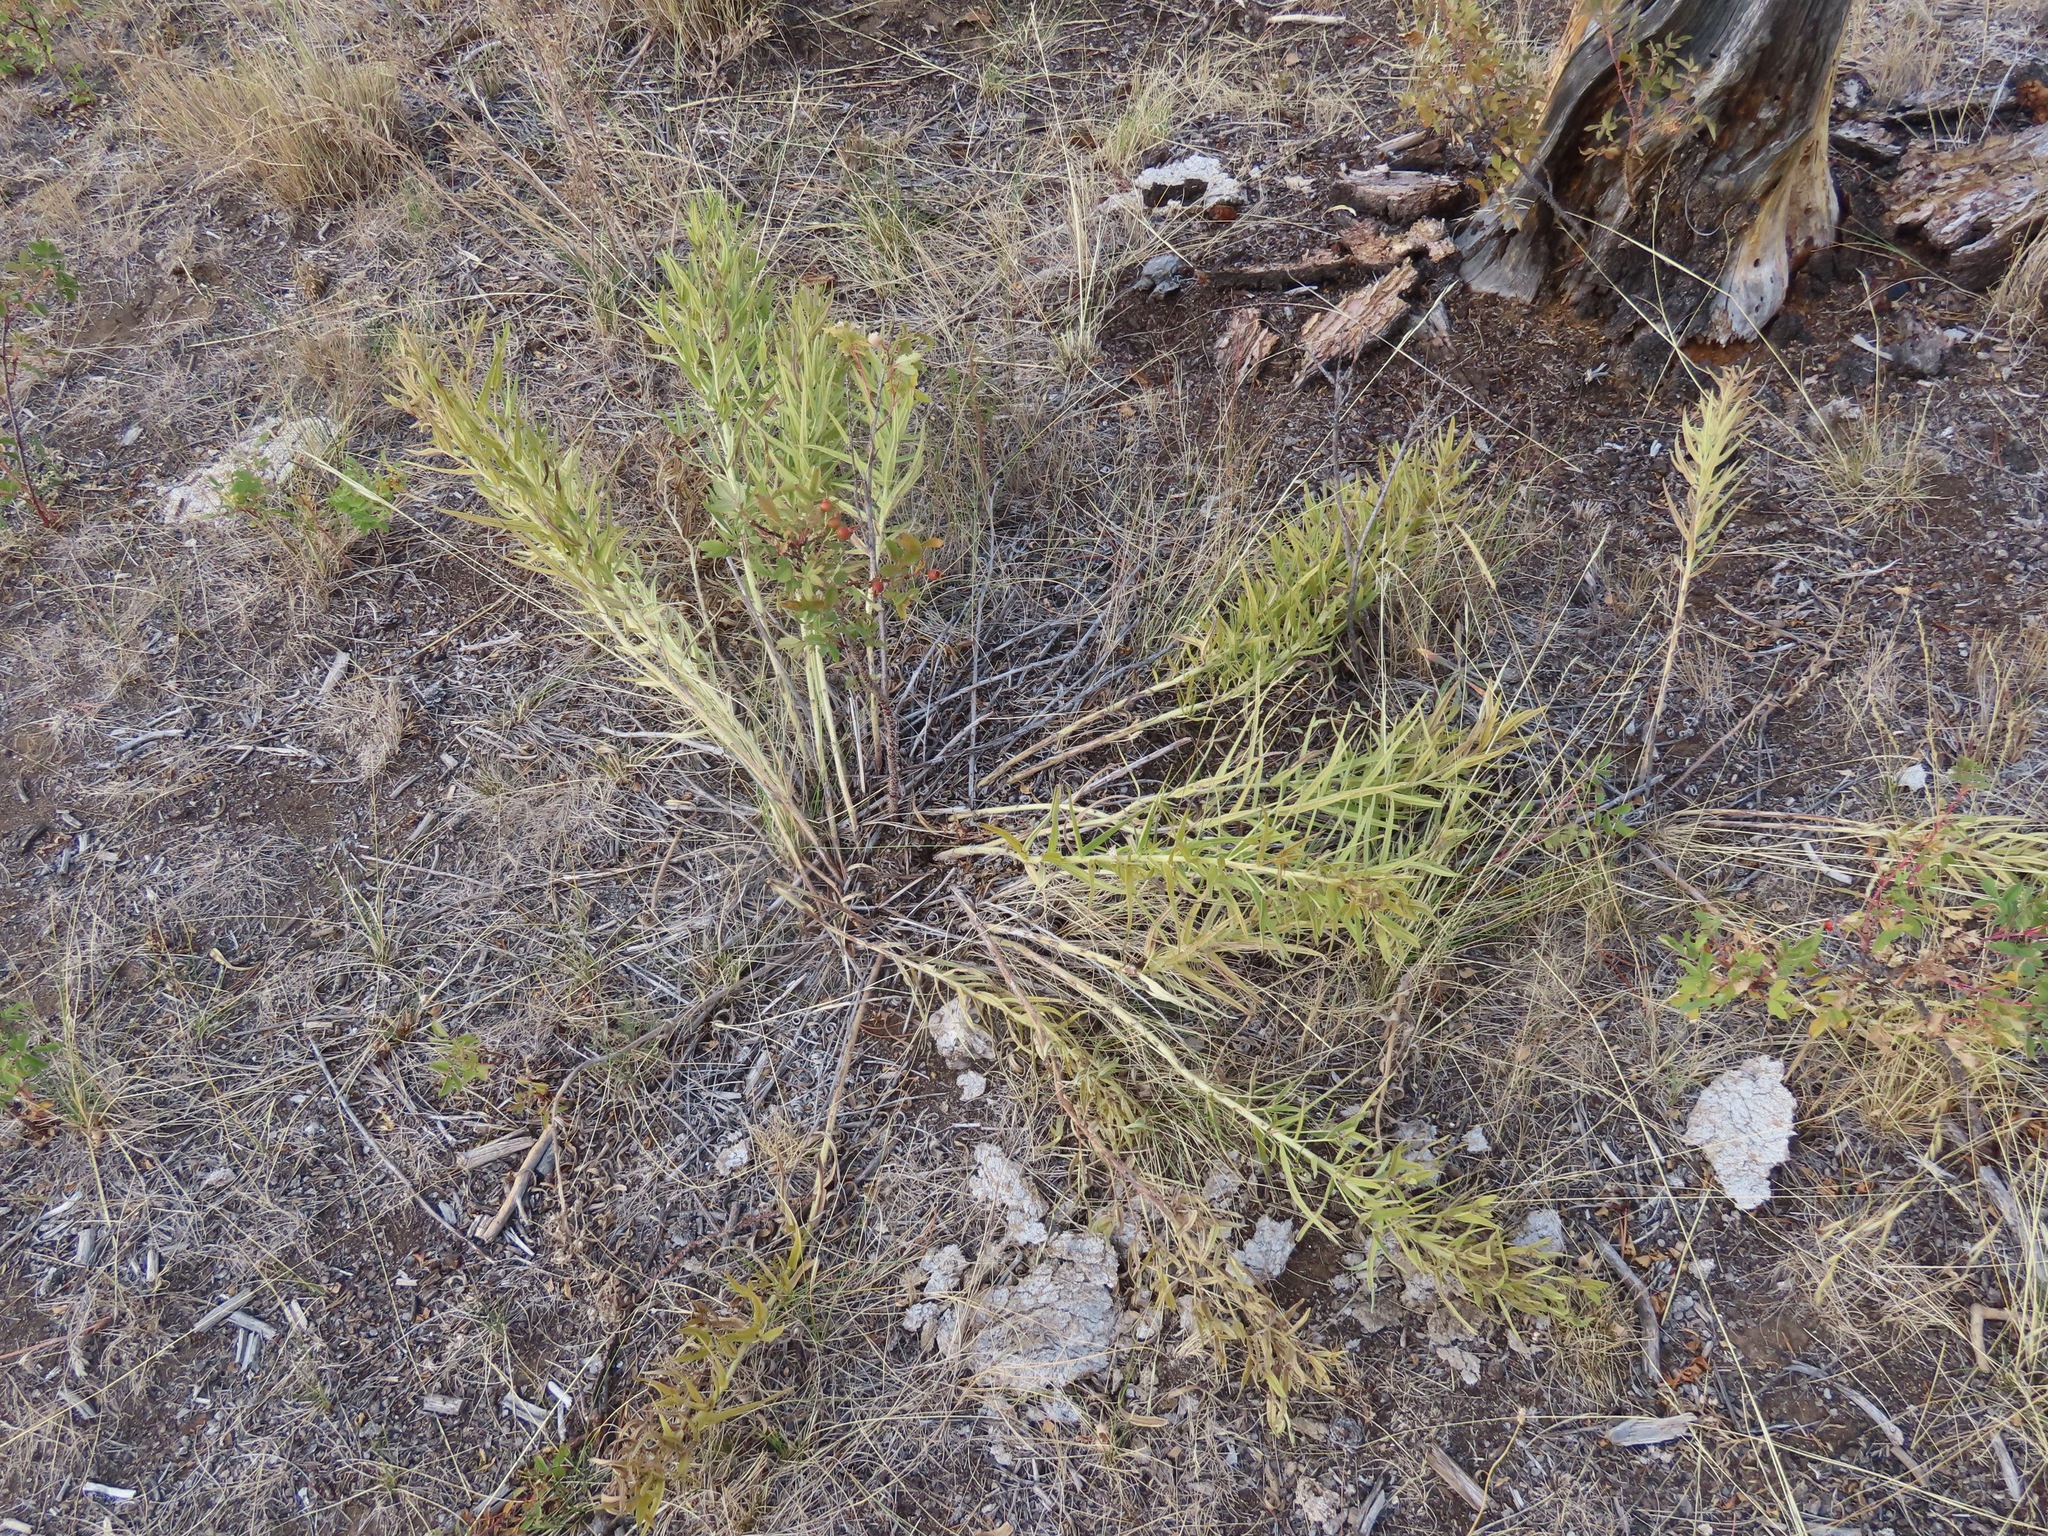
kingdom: Plantae
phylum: Tracheophyta
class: Magnoliopsida
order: Boraginales
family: Boraginaceae
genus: Lithospermum
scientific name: Lithospermum ruderale
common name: Western gromwell
